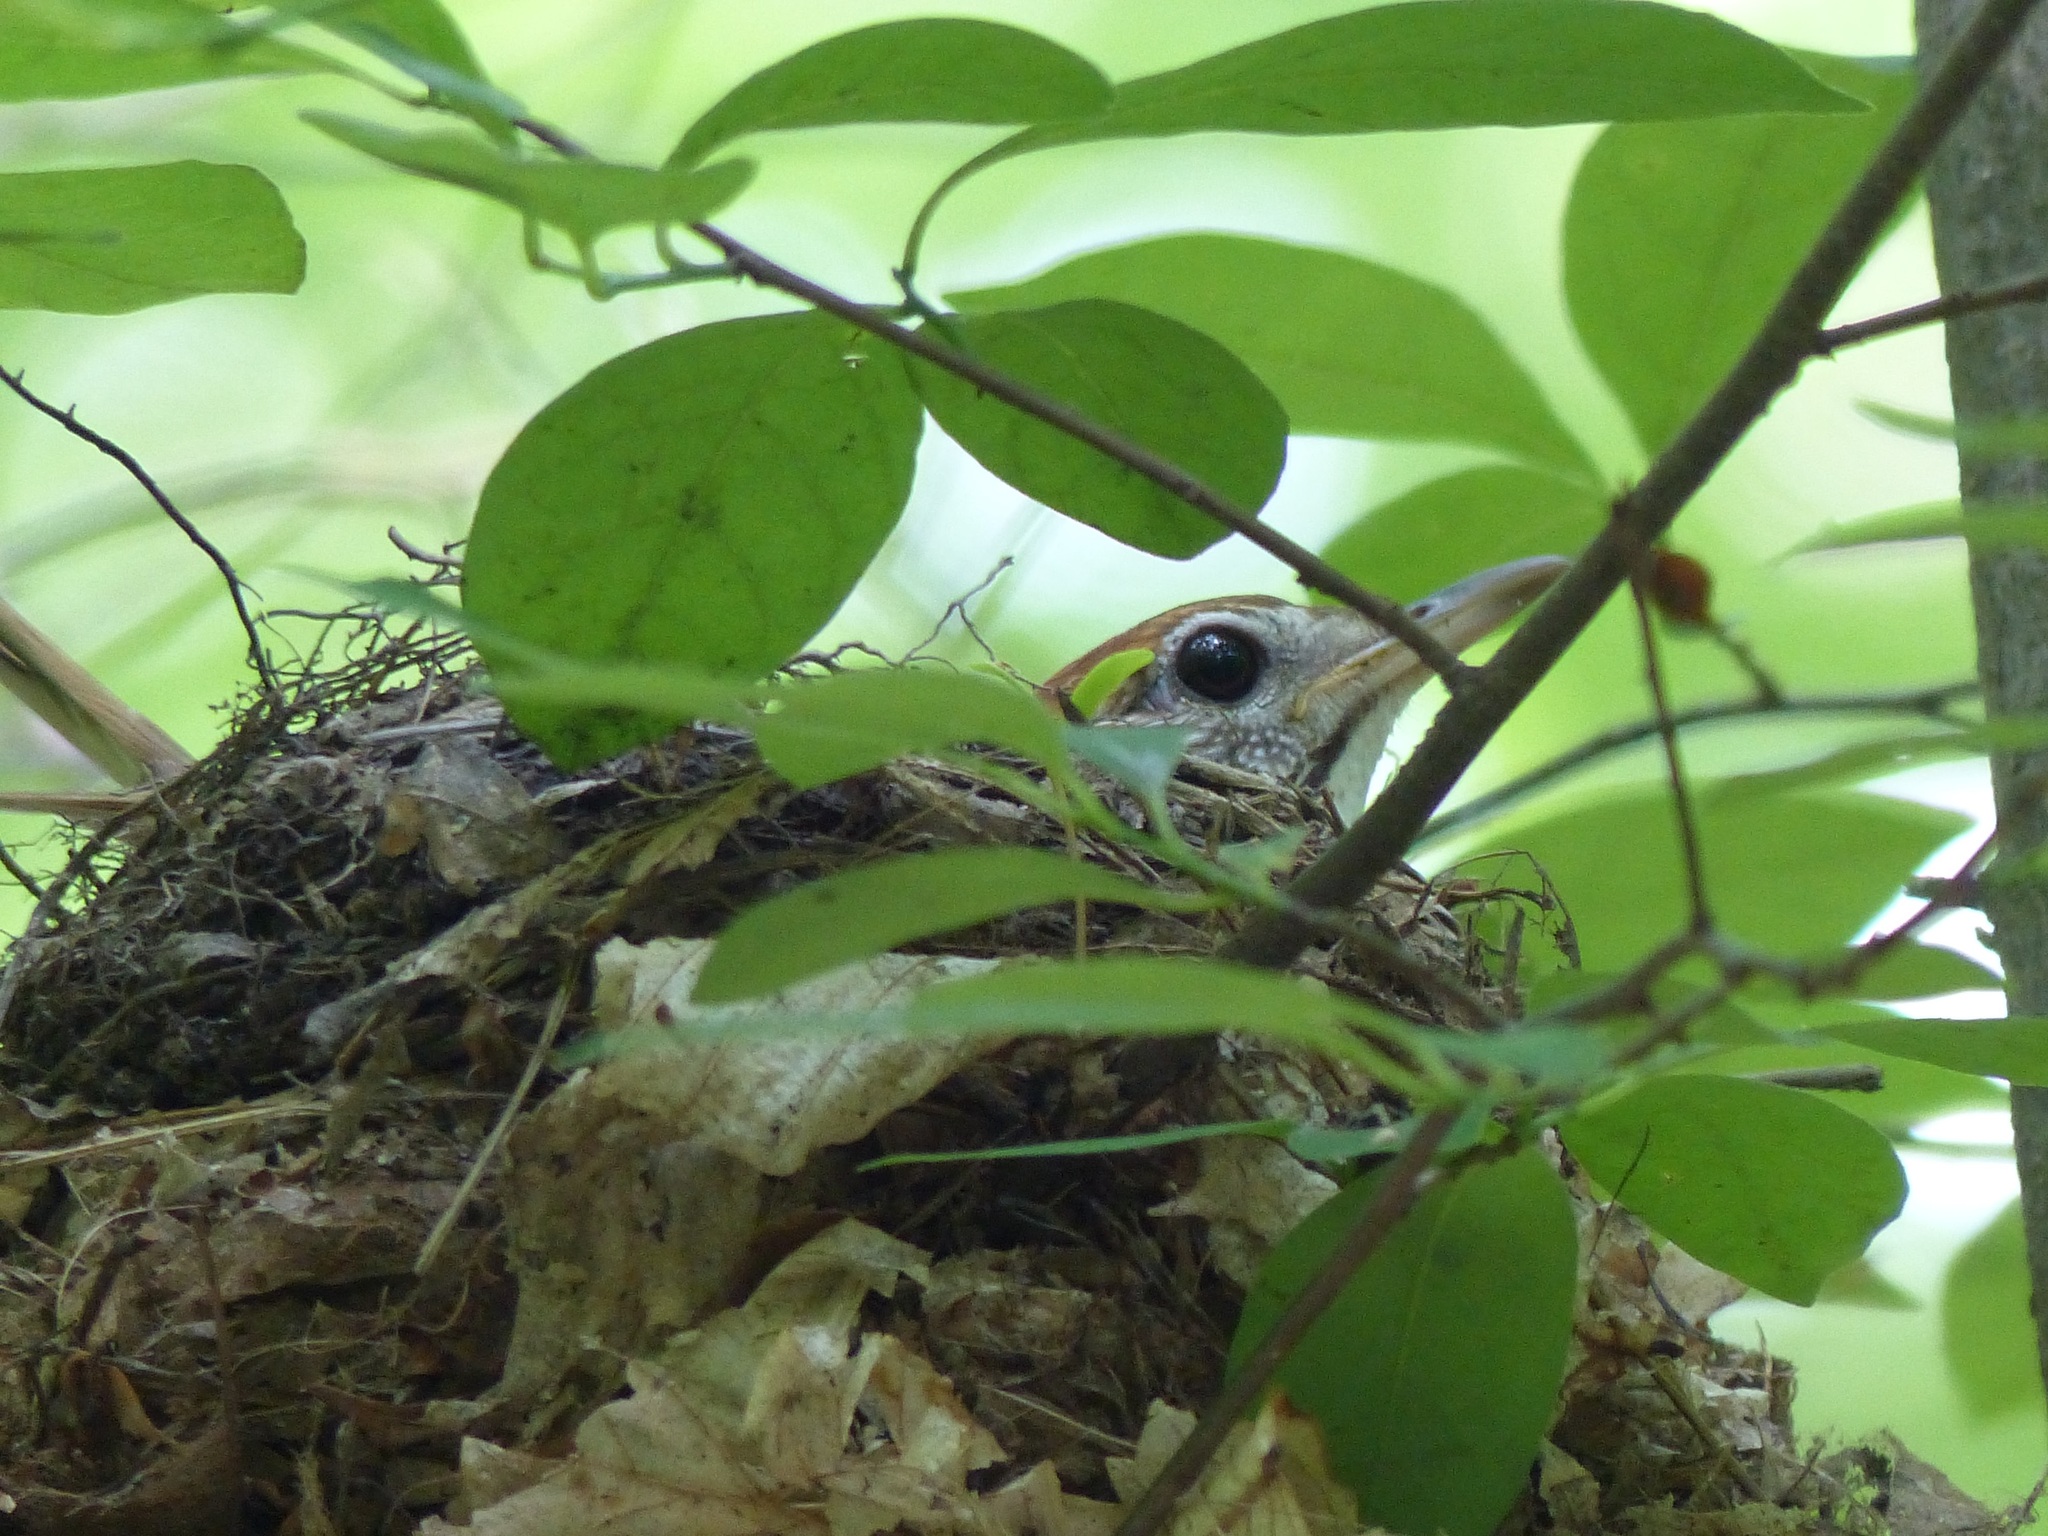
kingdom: Animalia
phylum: Chordata
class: Aves
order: Passeriformes
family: Turdidae
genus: Hylocichla
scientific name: Hylocichla mustelina
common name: Wood thrush
